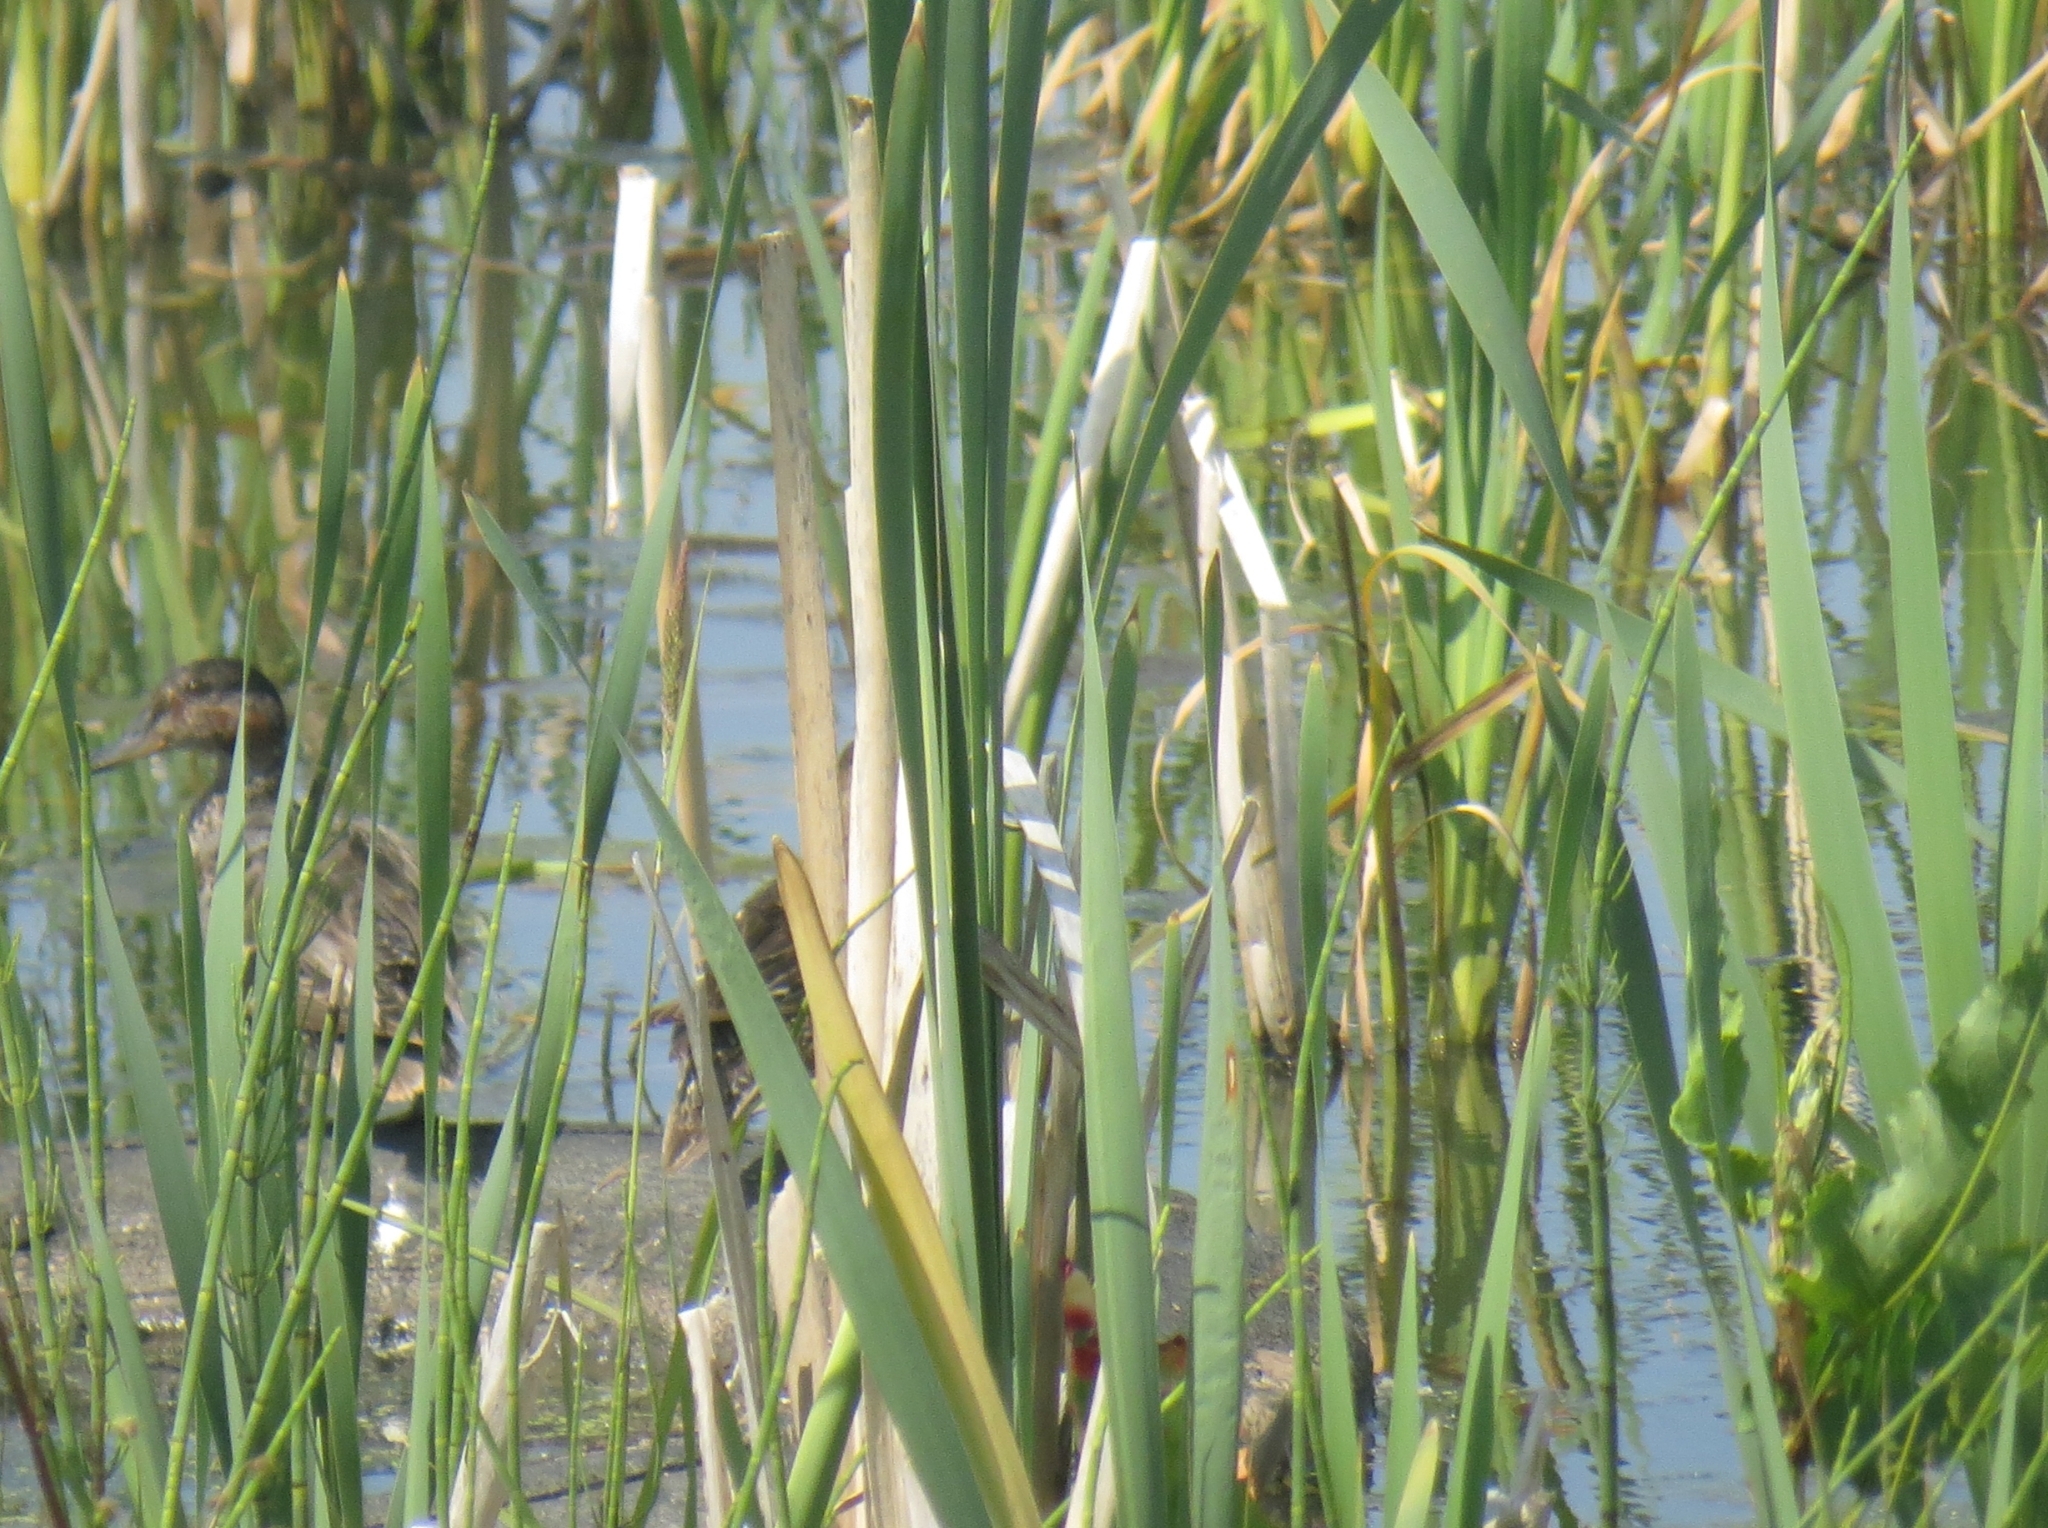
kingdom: Animalia
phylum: Chordata
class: Aves
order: Anseriformes
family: Anatidae
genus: Anas
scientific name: Anas crecca
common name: Eurasian teal
